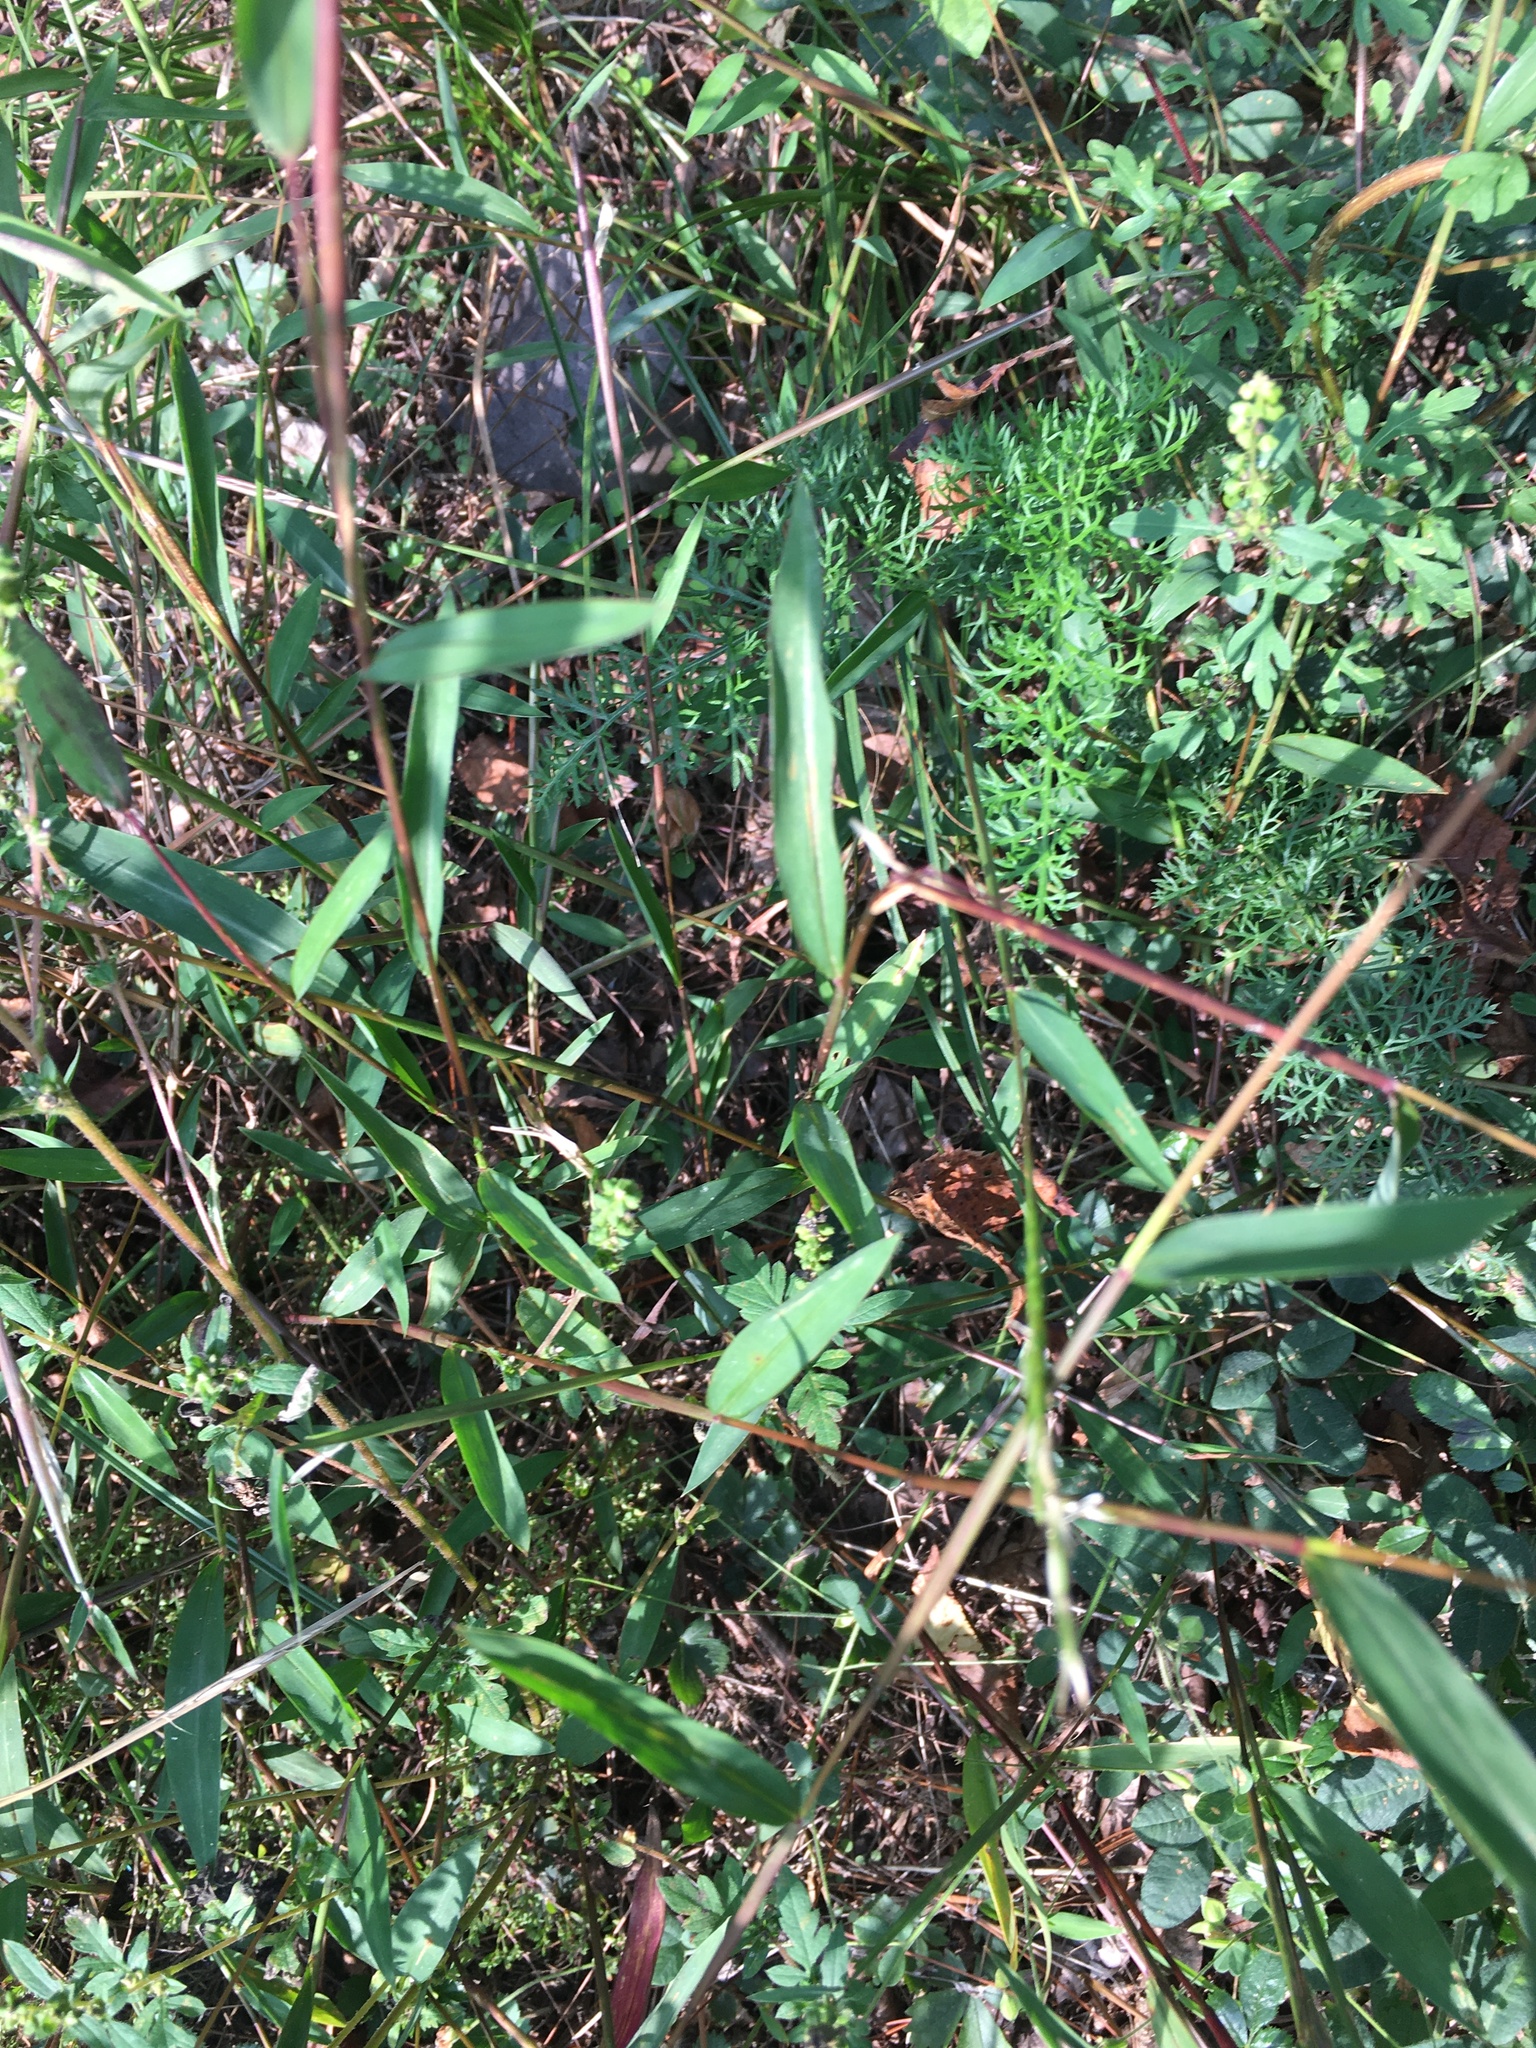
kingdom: Plantae
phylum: Tracheophyta
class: Liliopsida
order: Poales
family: Poaceae
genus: Microstegium
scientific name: Microstegium vimineum
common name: Japanese stiltgrass
